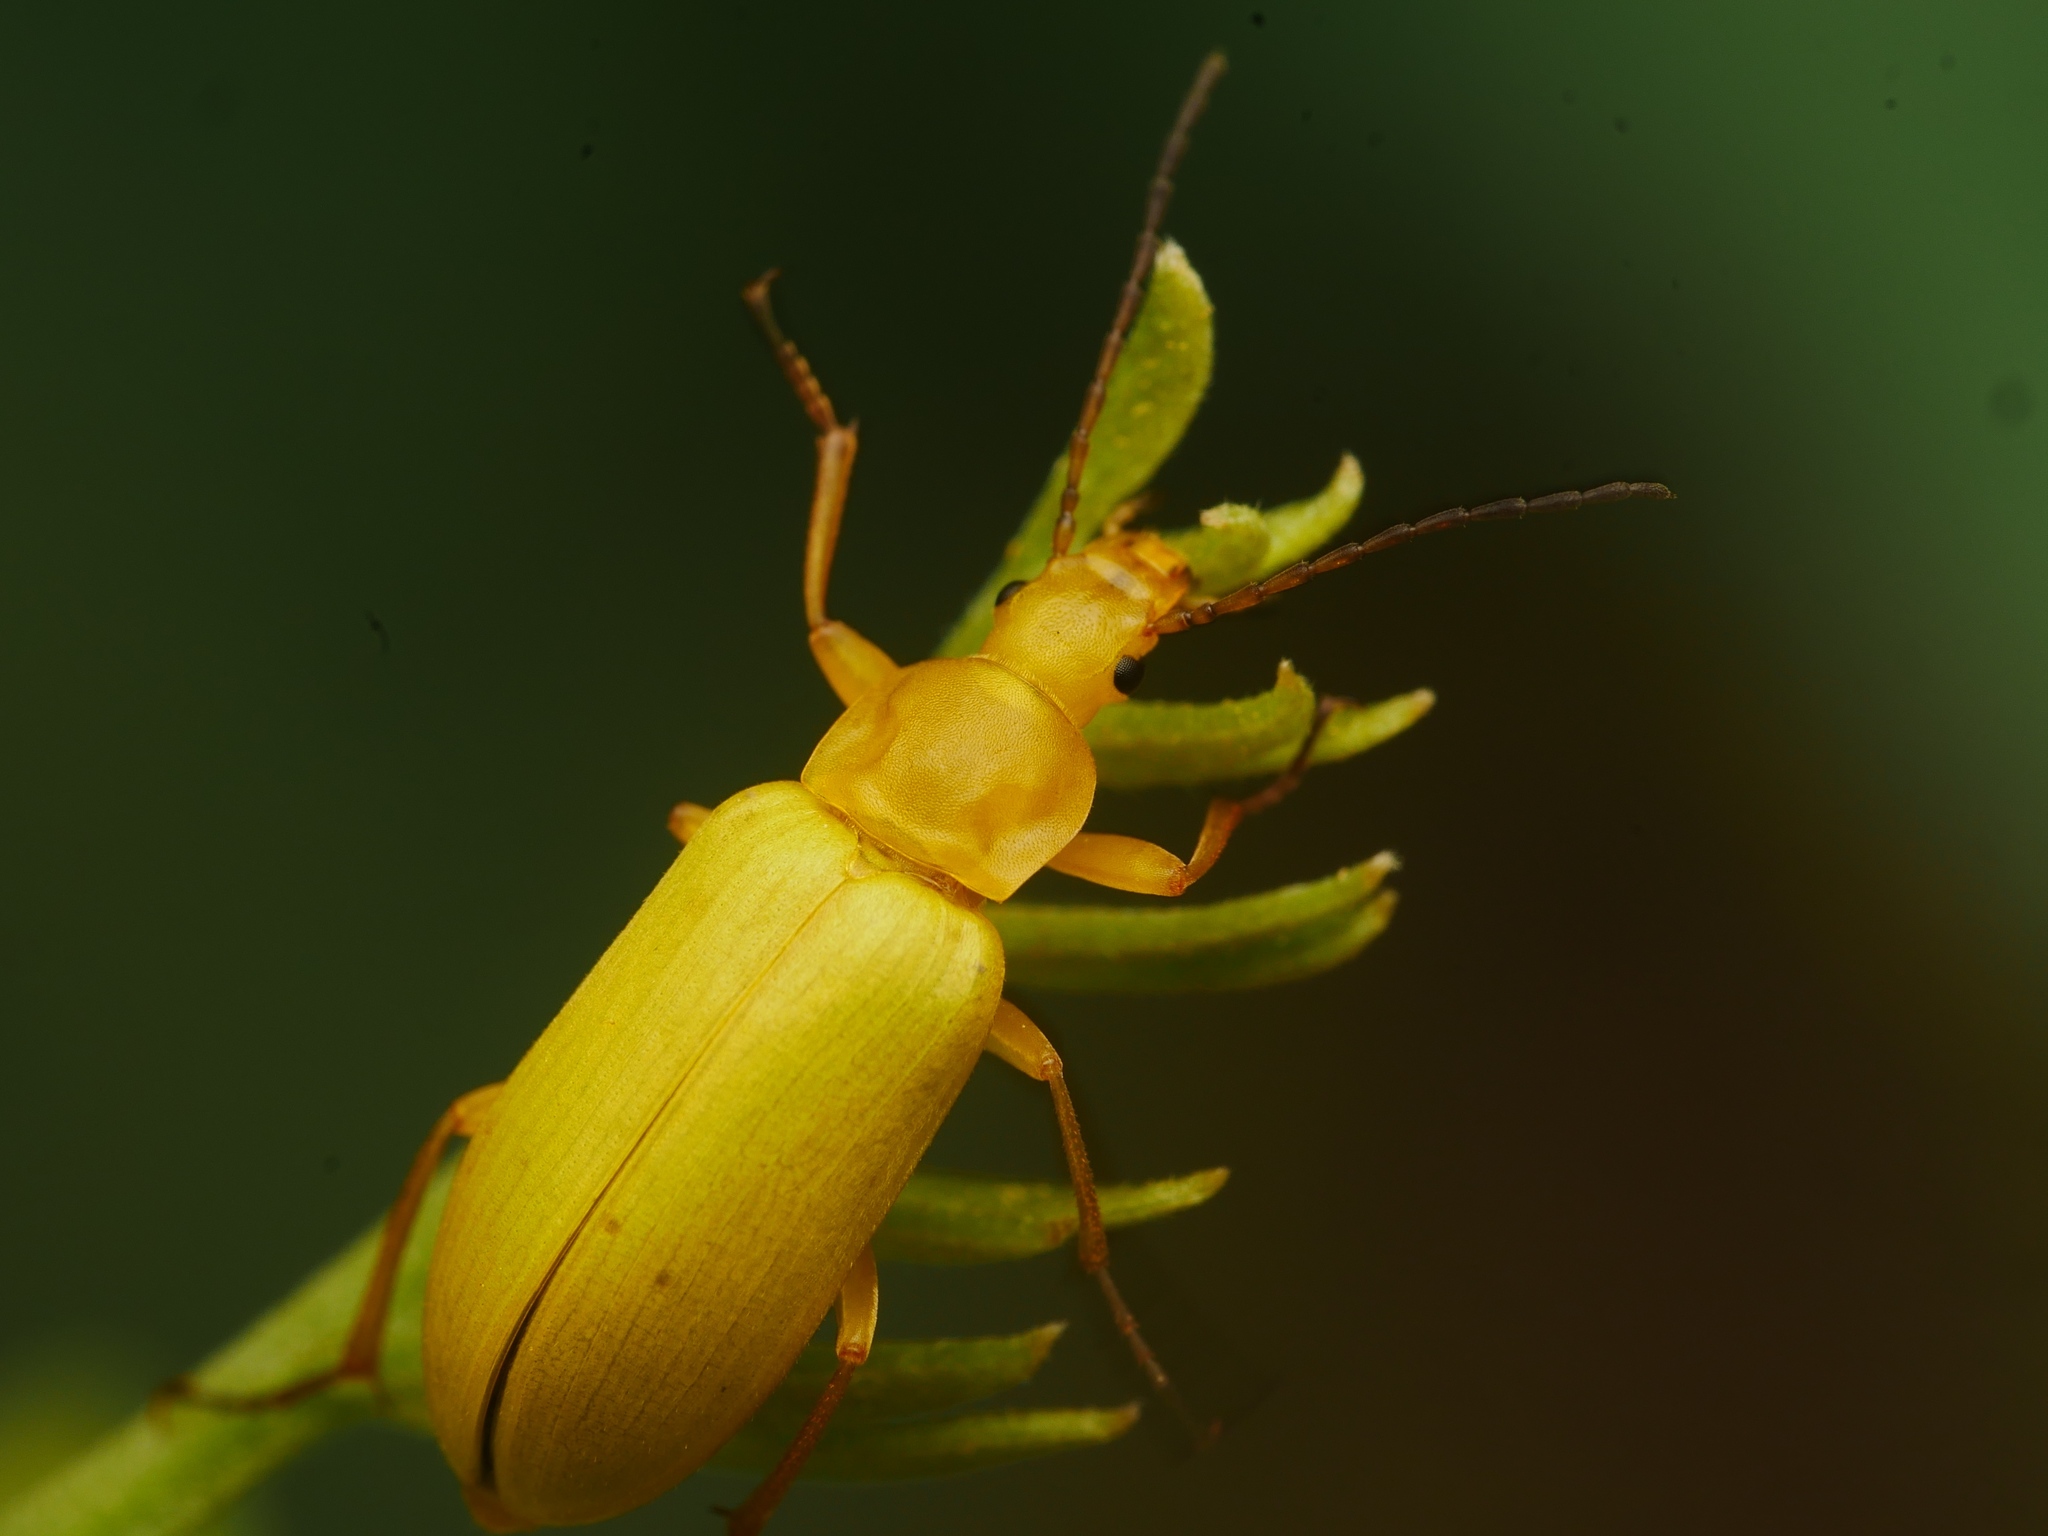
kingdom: Animalia
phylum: Arthropoda
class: Insecta
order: Coleoptera
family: Tenebrionidae
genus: Cteniopus
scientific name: Cteniopus sulphureus
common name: Sulphur beetle
